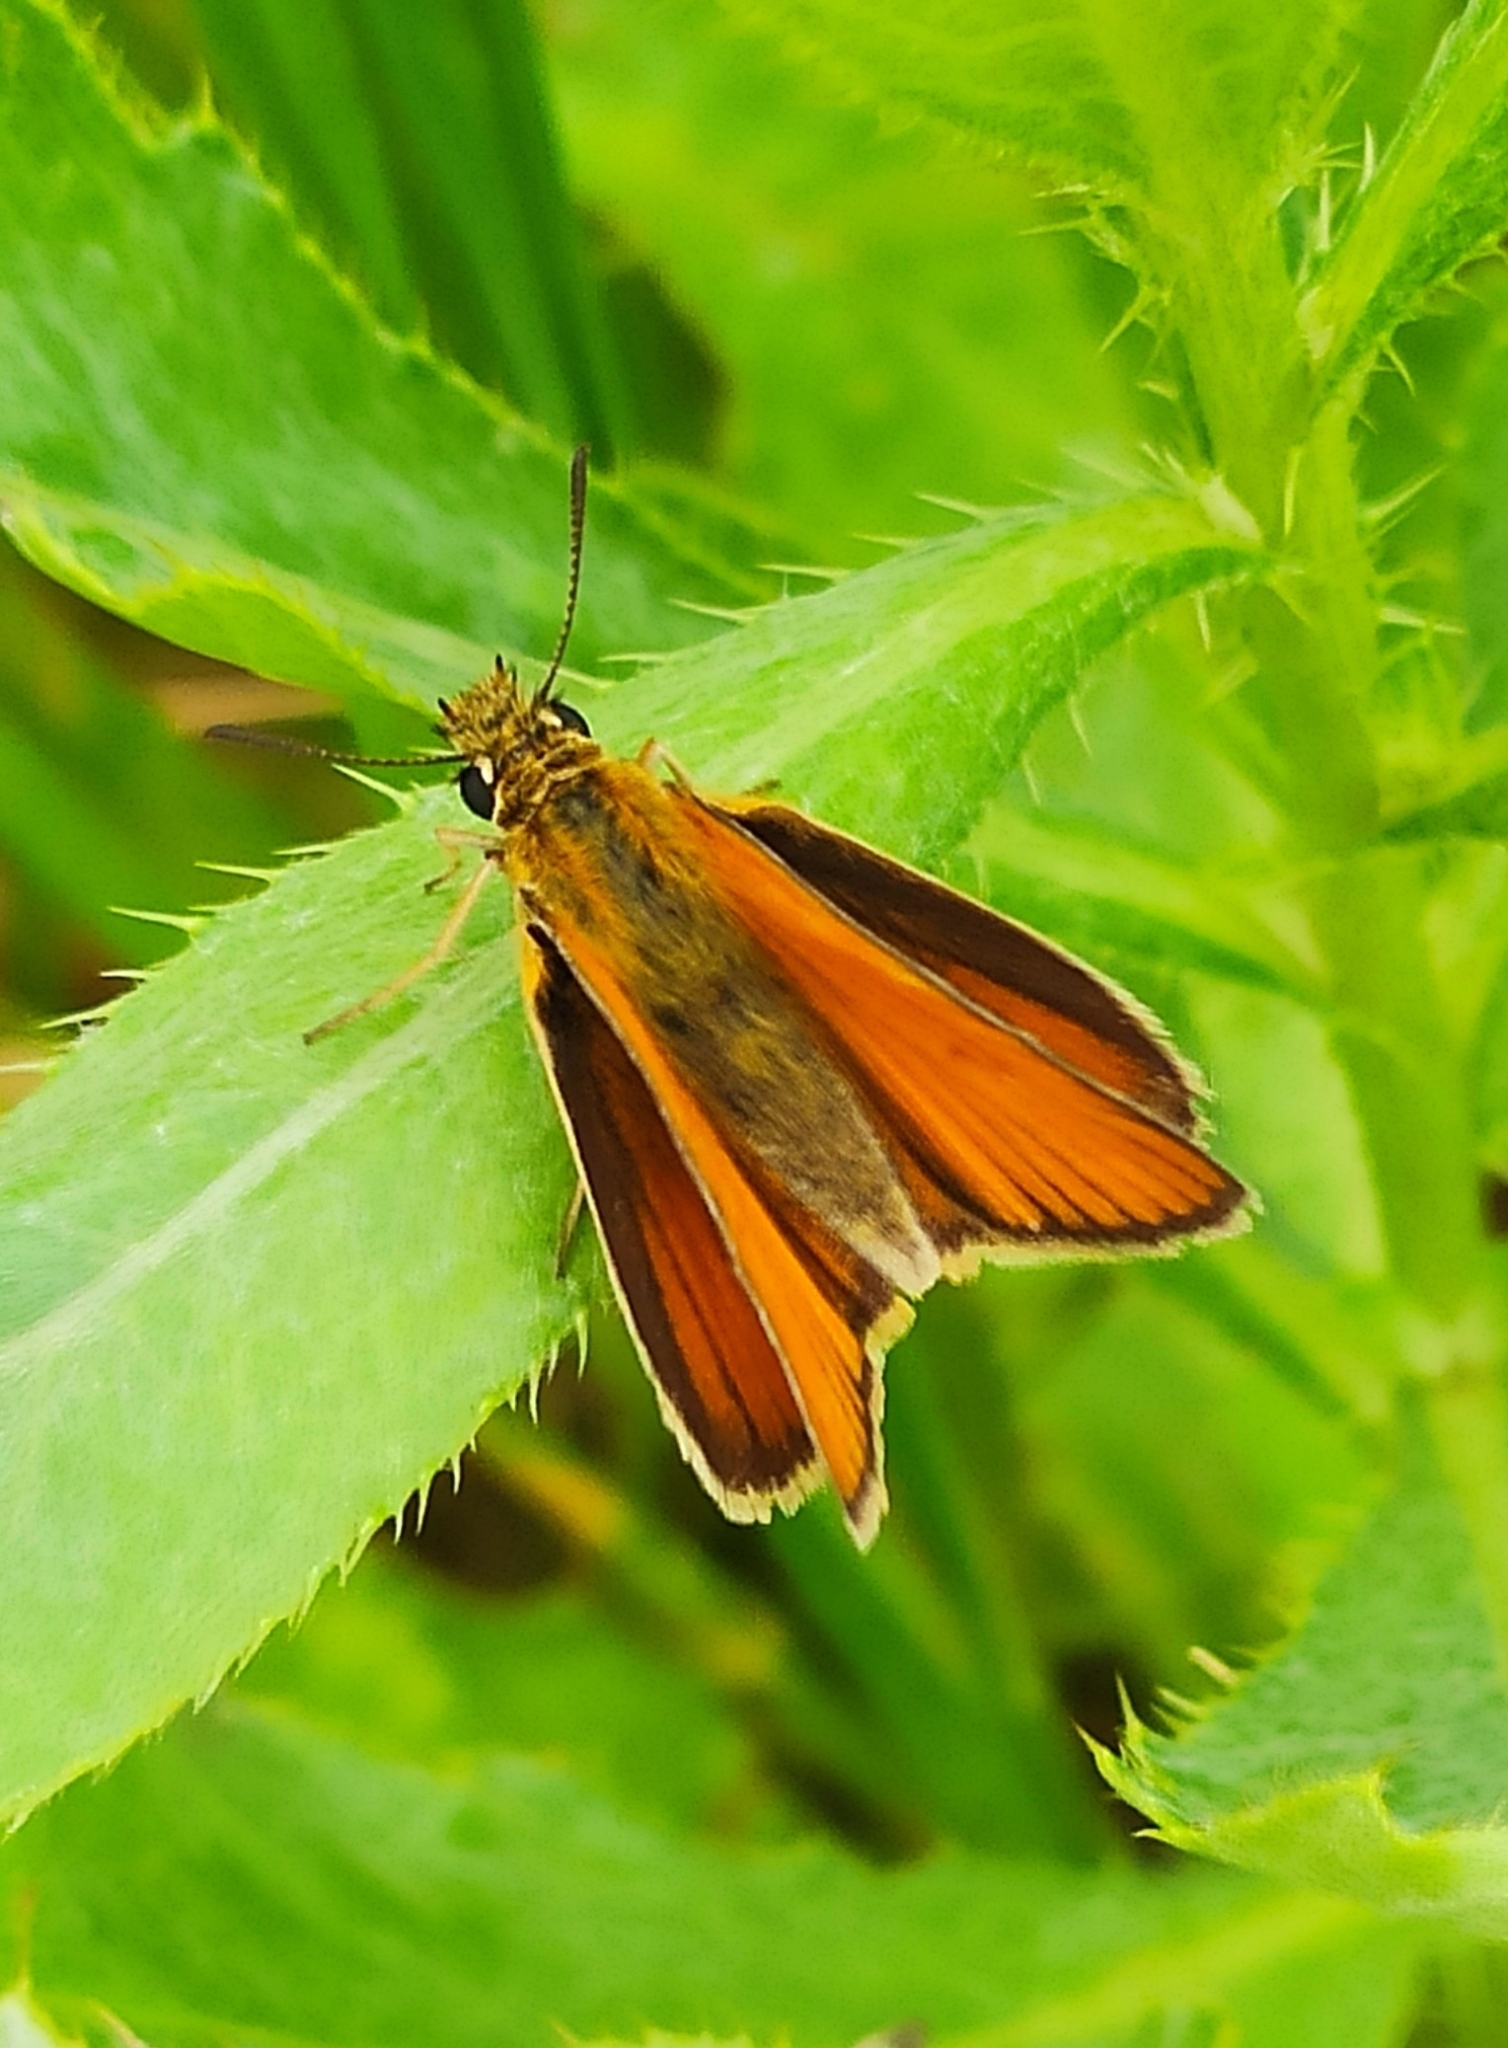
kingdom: Animalia
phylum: Arthropoda
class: Insecta
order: Lepidoptera
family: Hesperiidae
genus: Thymelicus
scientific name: Thymelicus lineola
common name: Essex skipper
